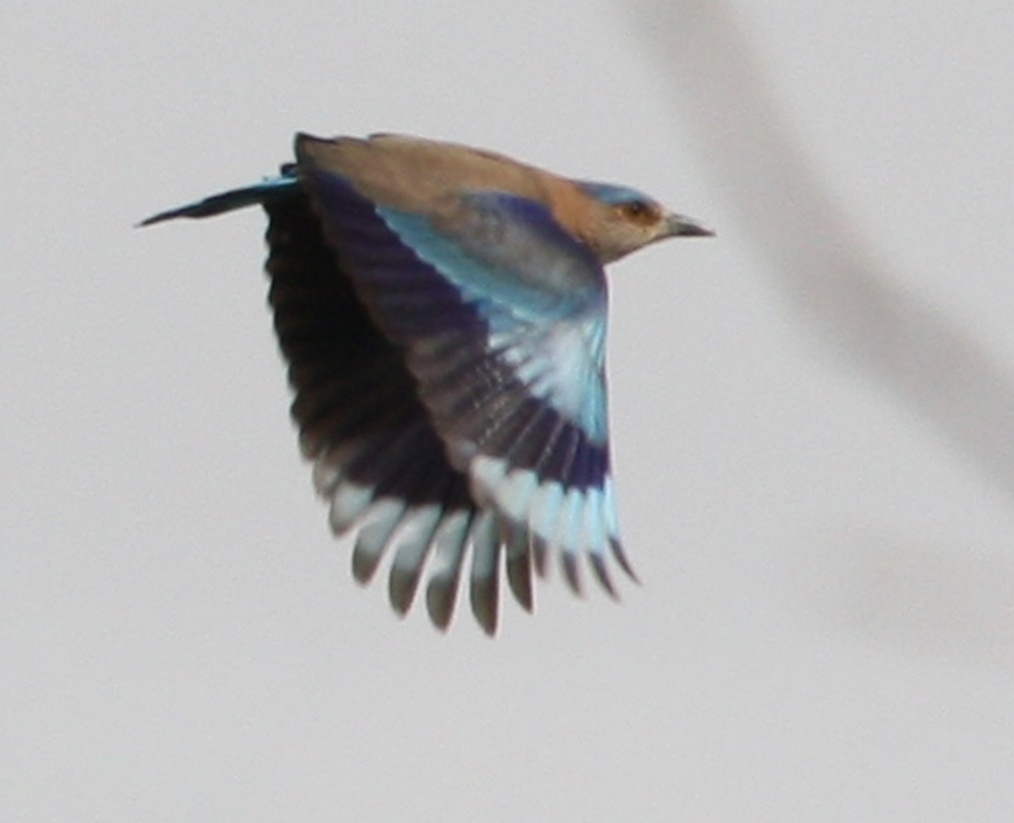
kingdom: Animalia
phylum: Chordata
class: Aves
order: Coraciiformes
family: Coraciidae
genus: Coracias
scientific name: Coracias benghalensis
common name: Indian roller
